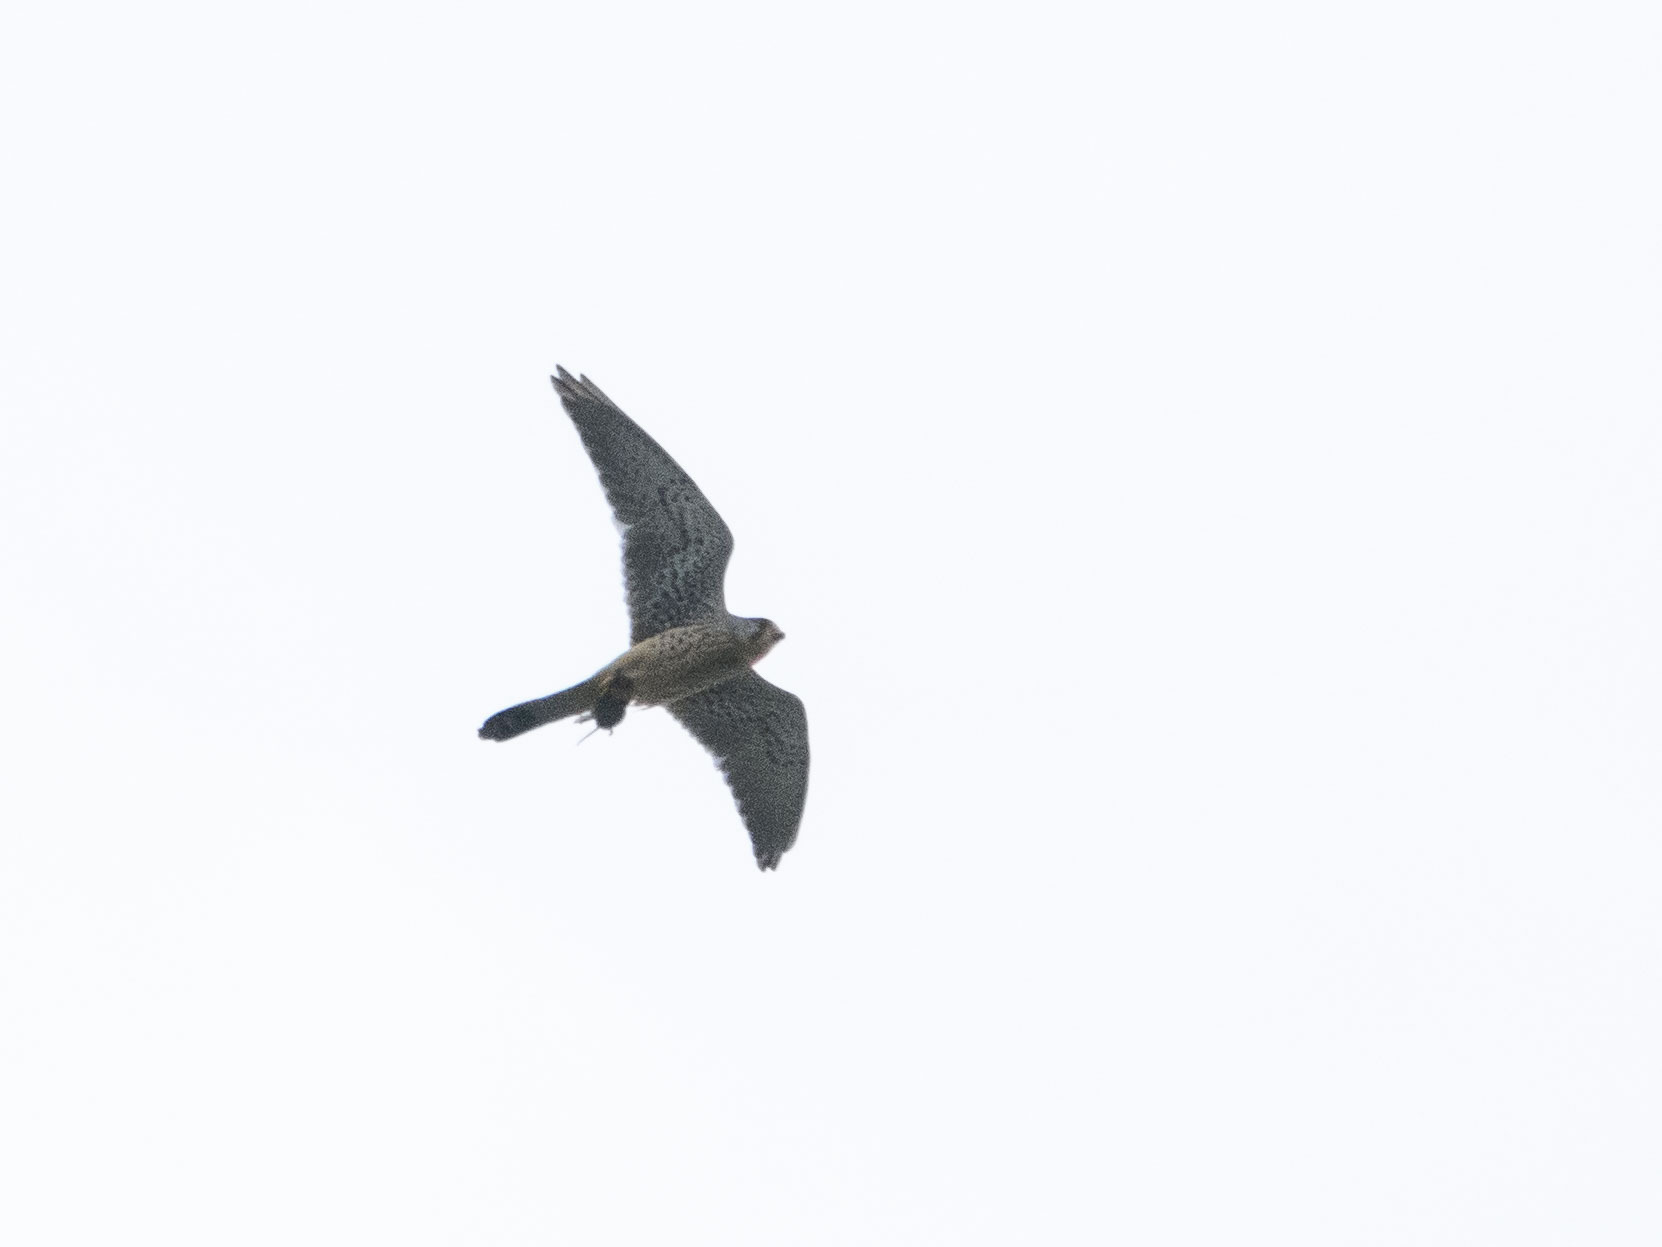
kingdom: Animalia
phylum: Chordata
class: Aves
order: Falconiformes
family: Falconidae
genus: Falco
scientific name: Falco tinnunculus
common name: Common kestrel
